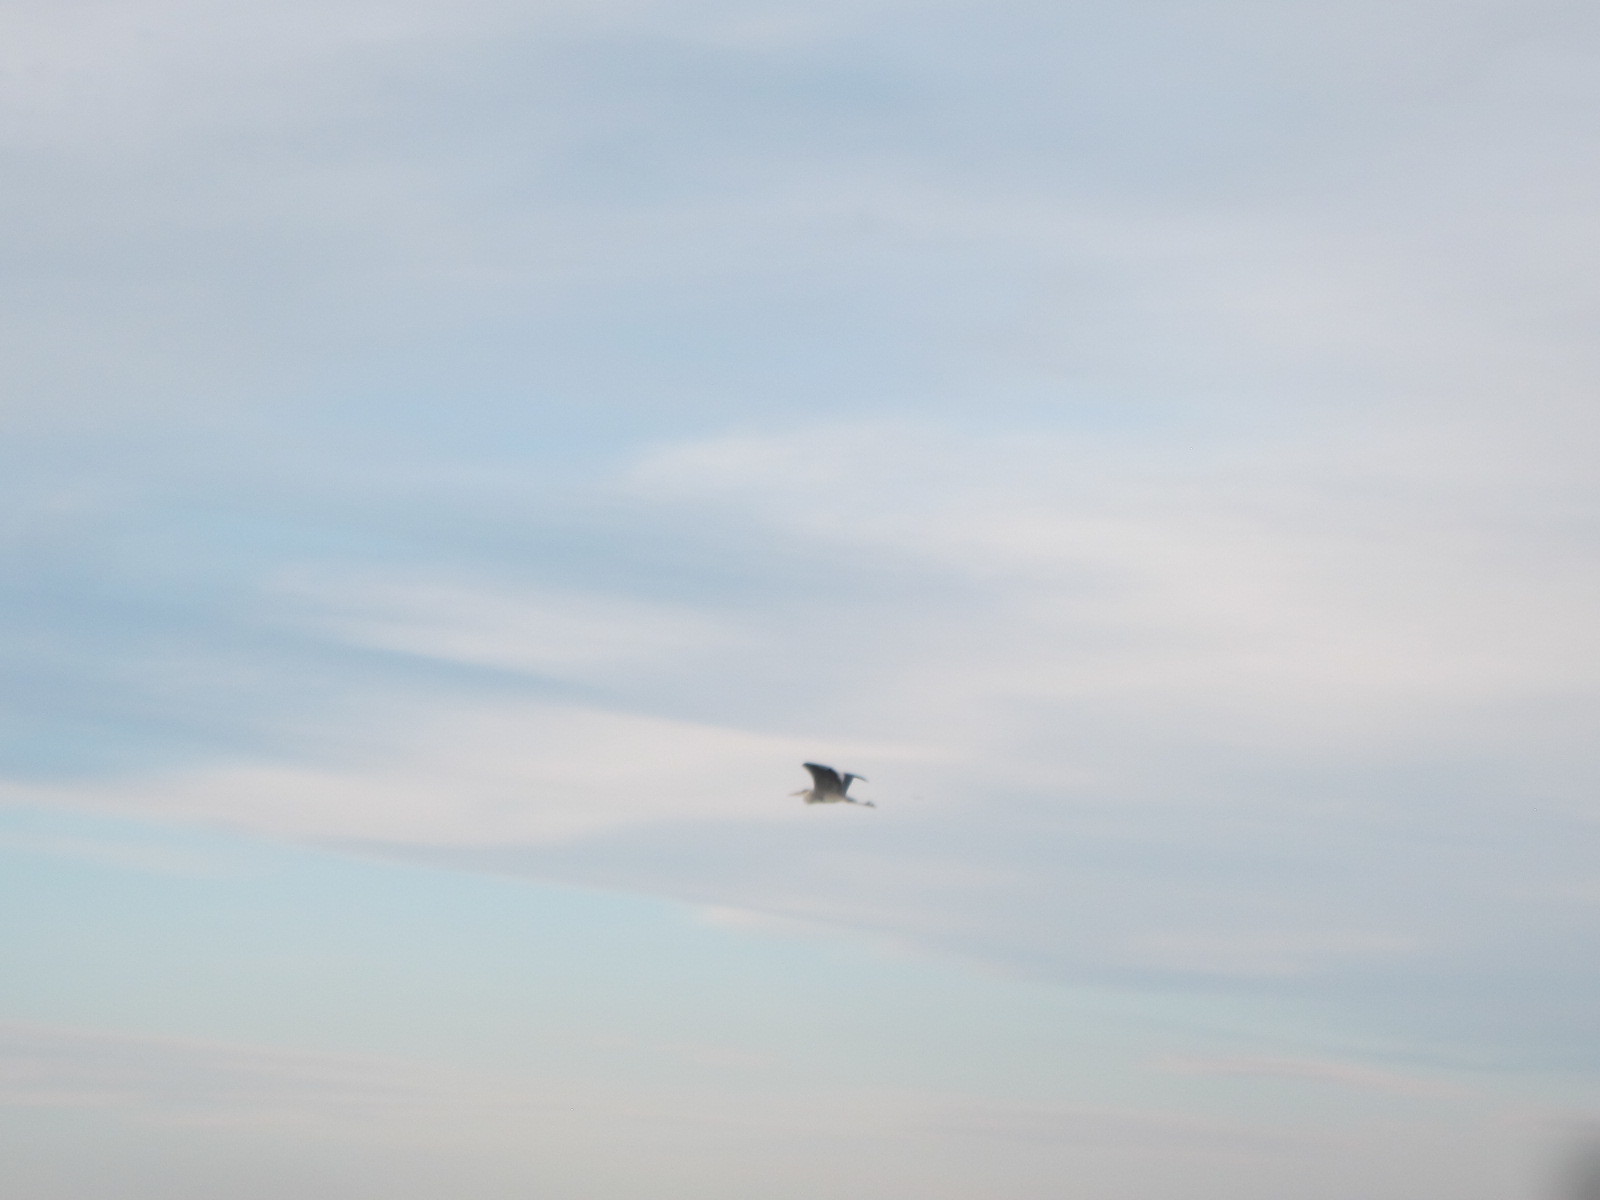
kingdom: Animalia
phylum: Chordata
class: Aves
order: Pelecaniformes
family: Ardeidae
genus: Ardea
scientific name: Ardea cinerea
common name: Grey heron
